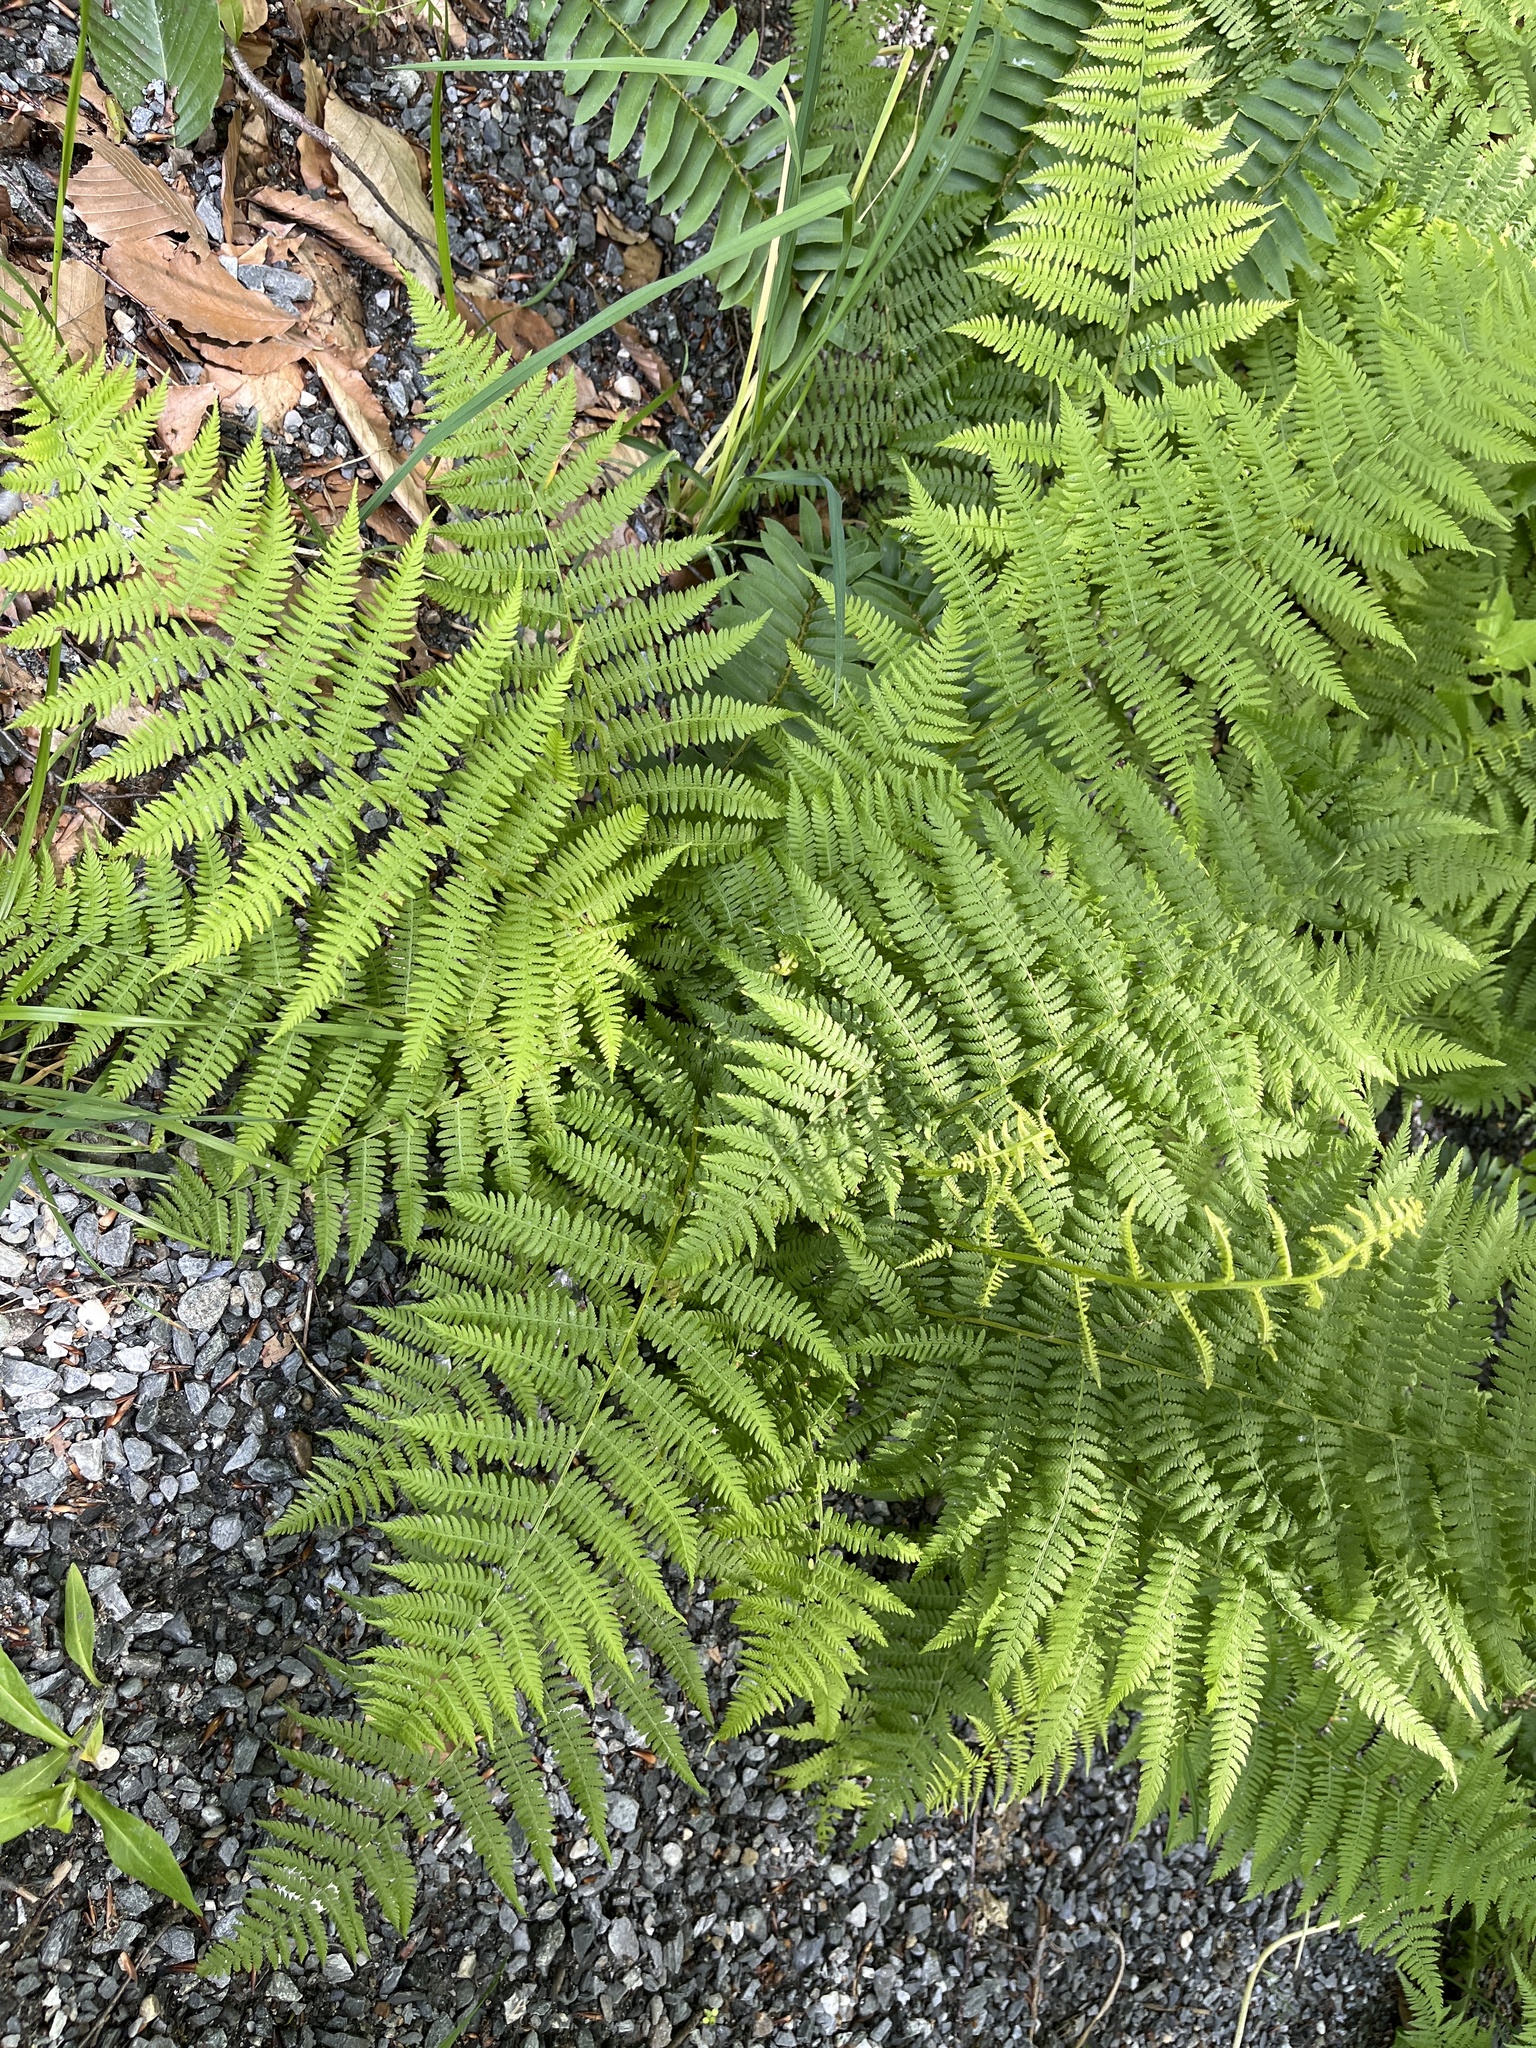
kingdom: Plantae
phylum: Tracheophyta
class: Polypodiopsida
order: Polypodiales
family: Athyriaceae
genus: Athyrium
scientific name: Athyrium angustum
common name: Northern lady fern
